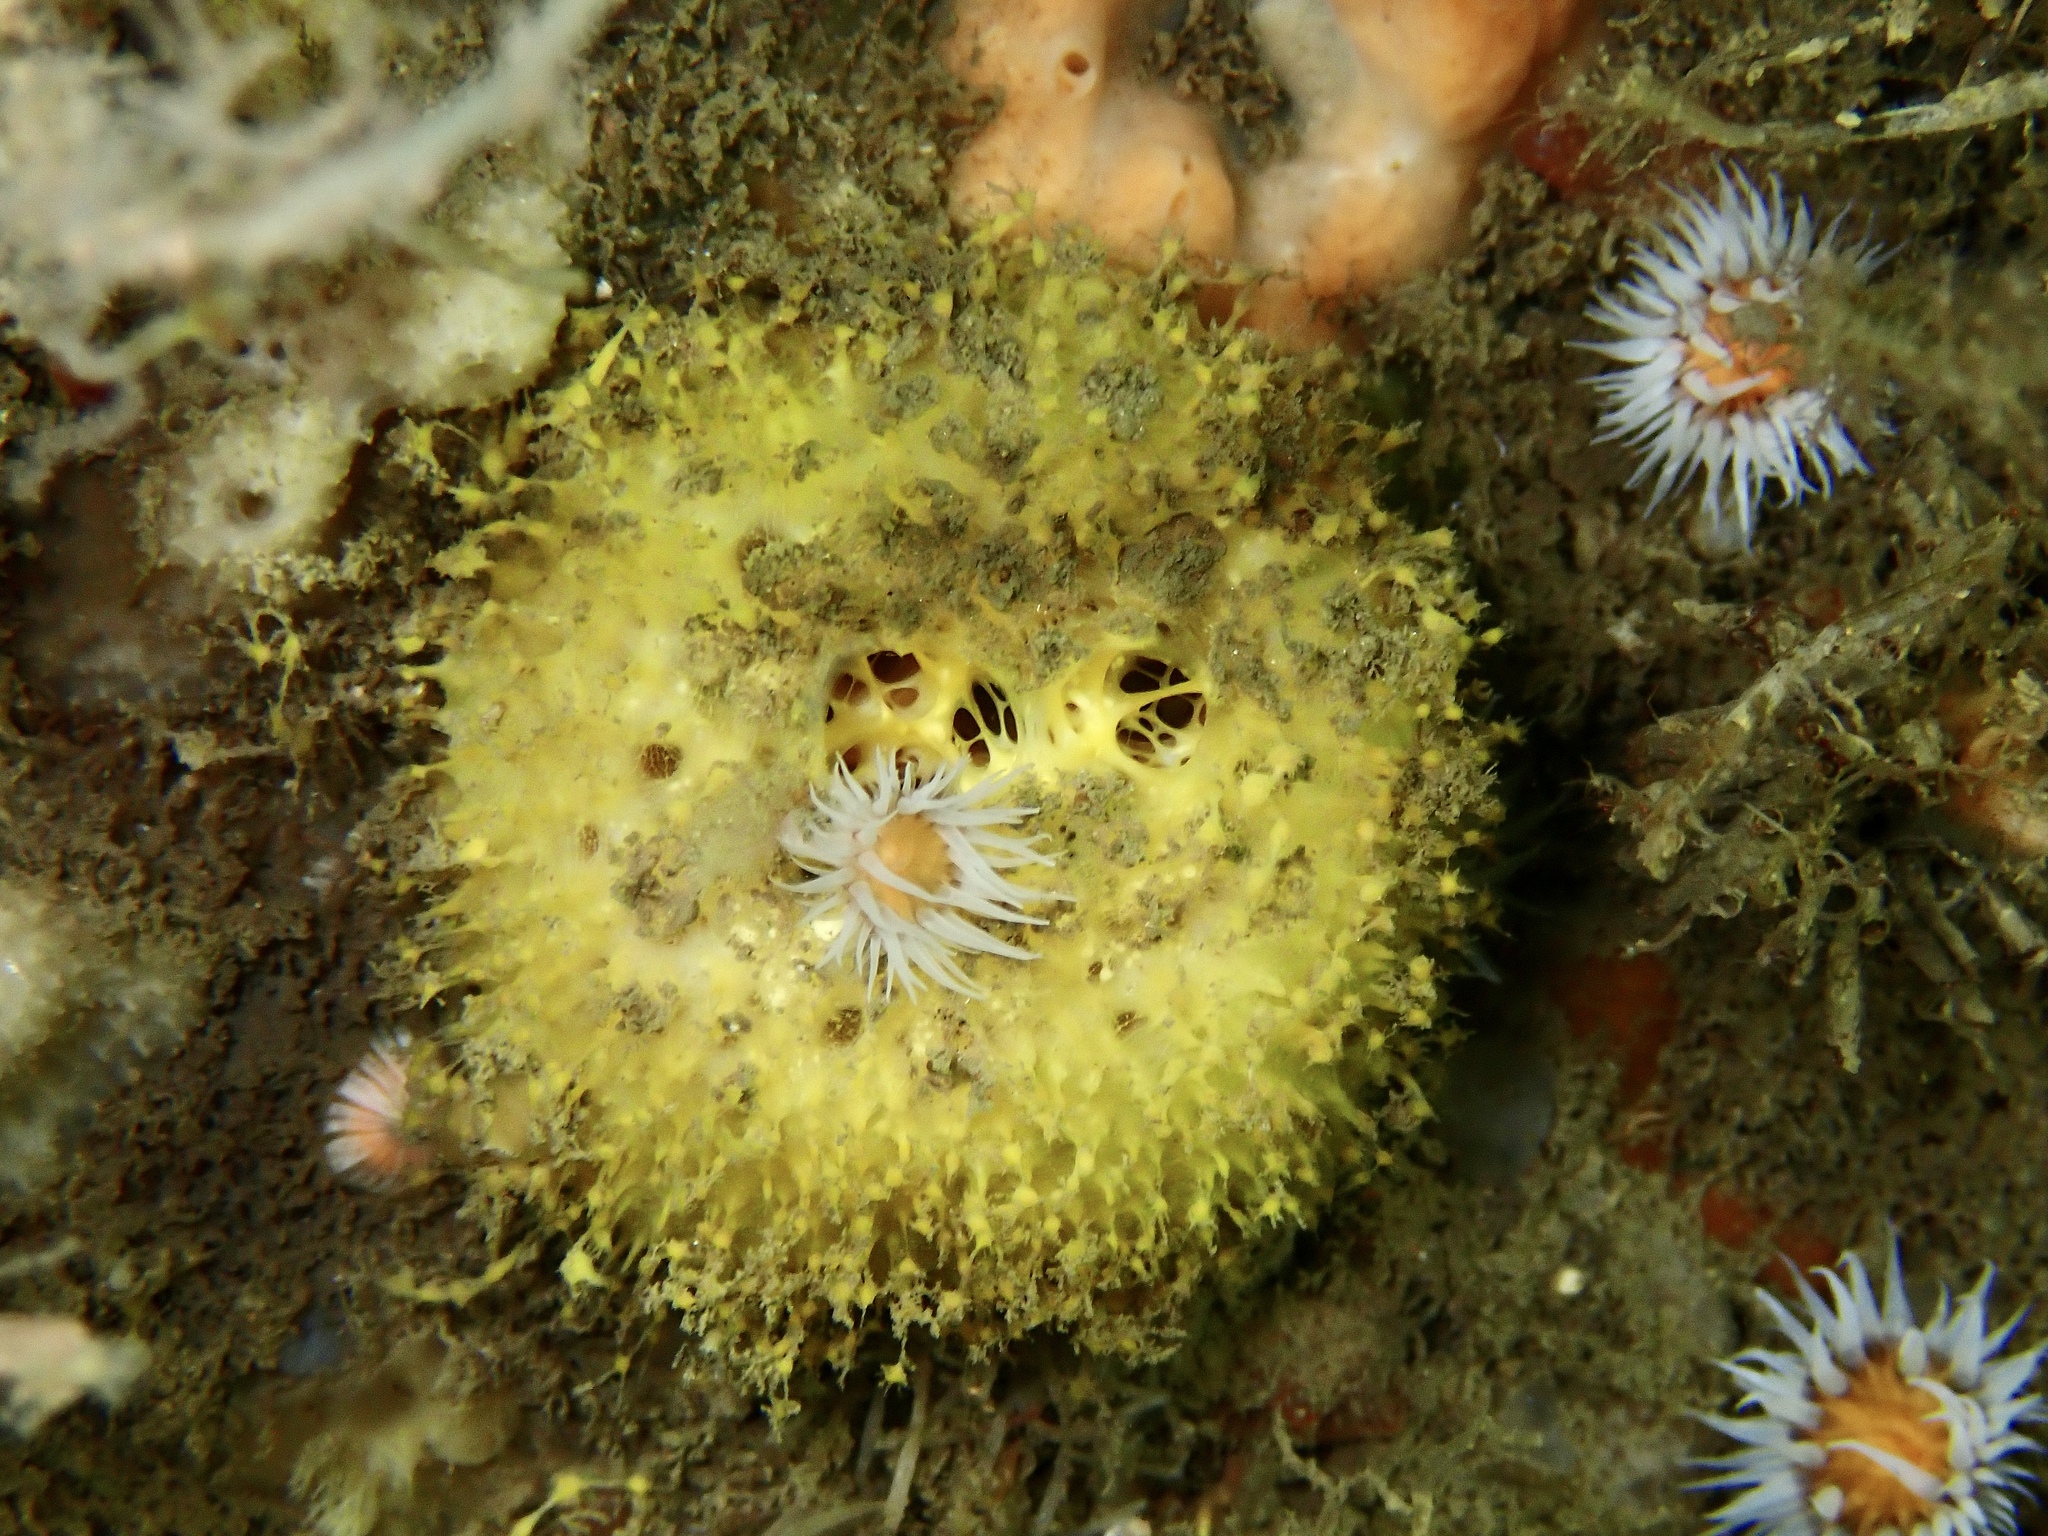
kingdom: Animalia
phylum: Porifera
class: Demospongiae
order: Tethyida
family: Tethyidae
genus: Tethya
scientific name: Tethya citrina
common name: Sea lemon
